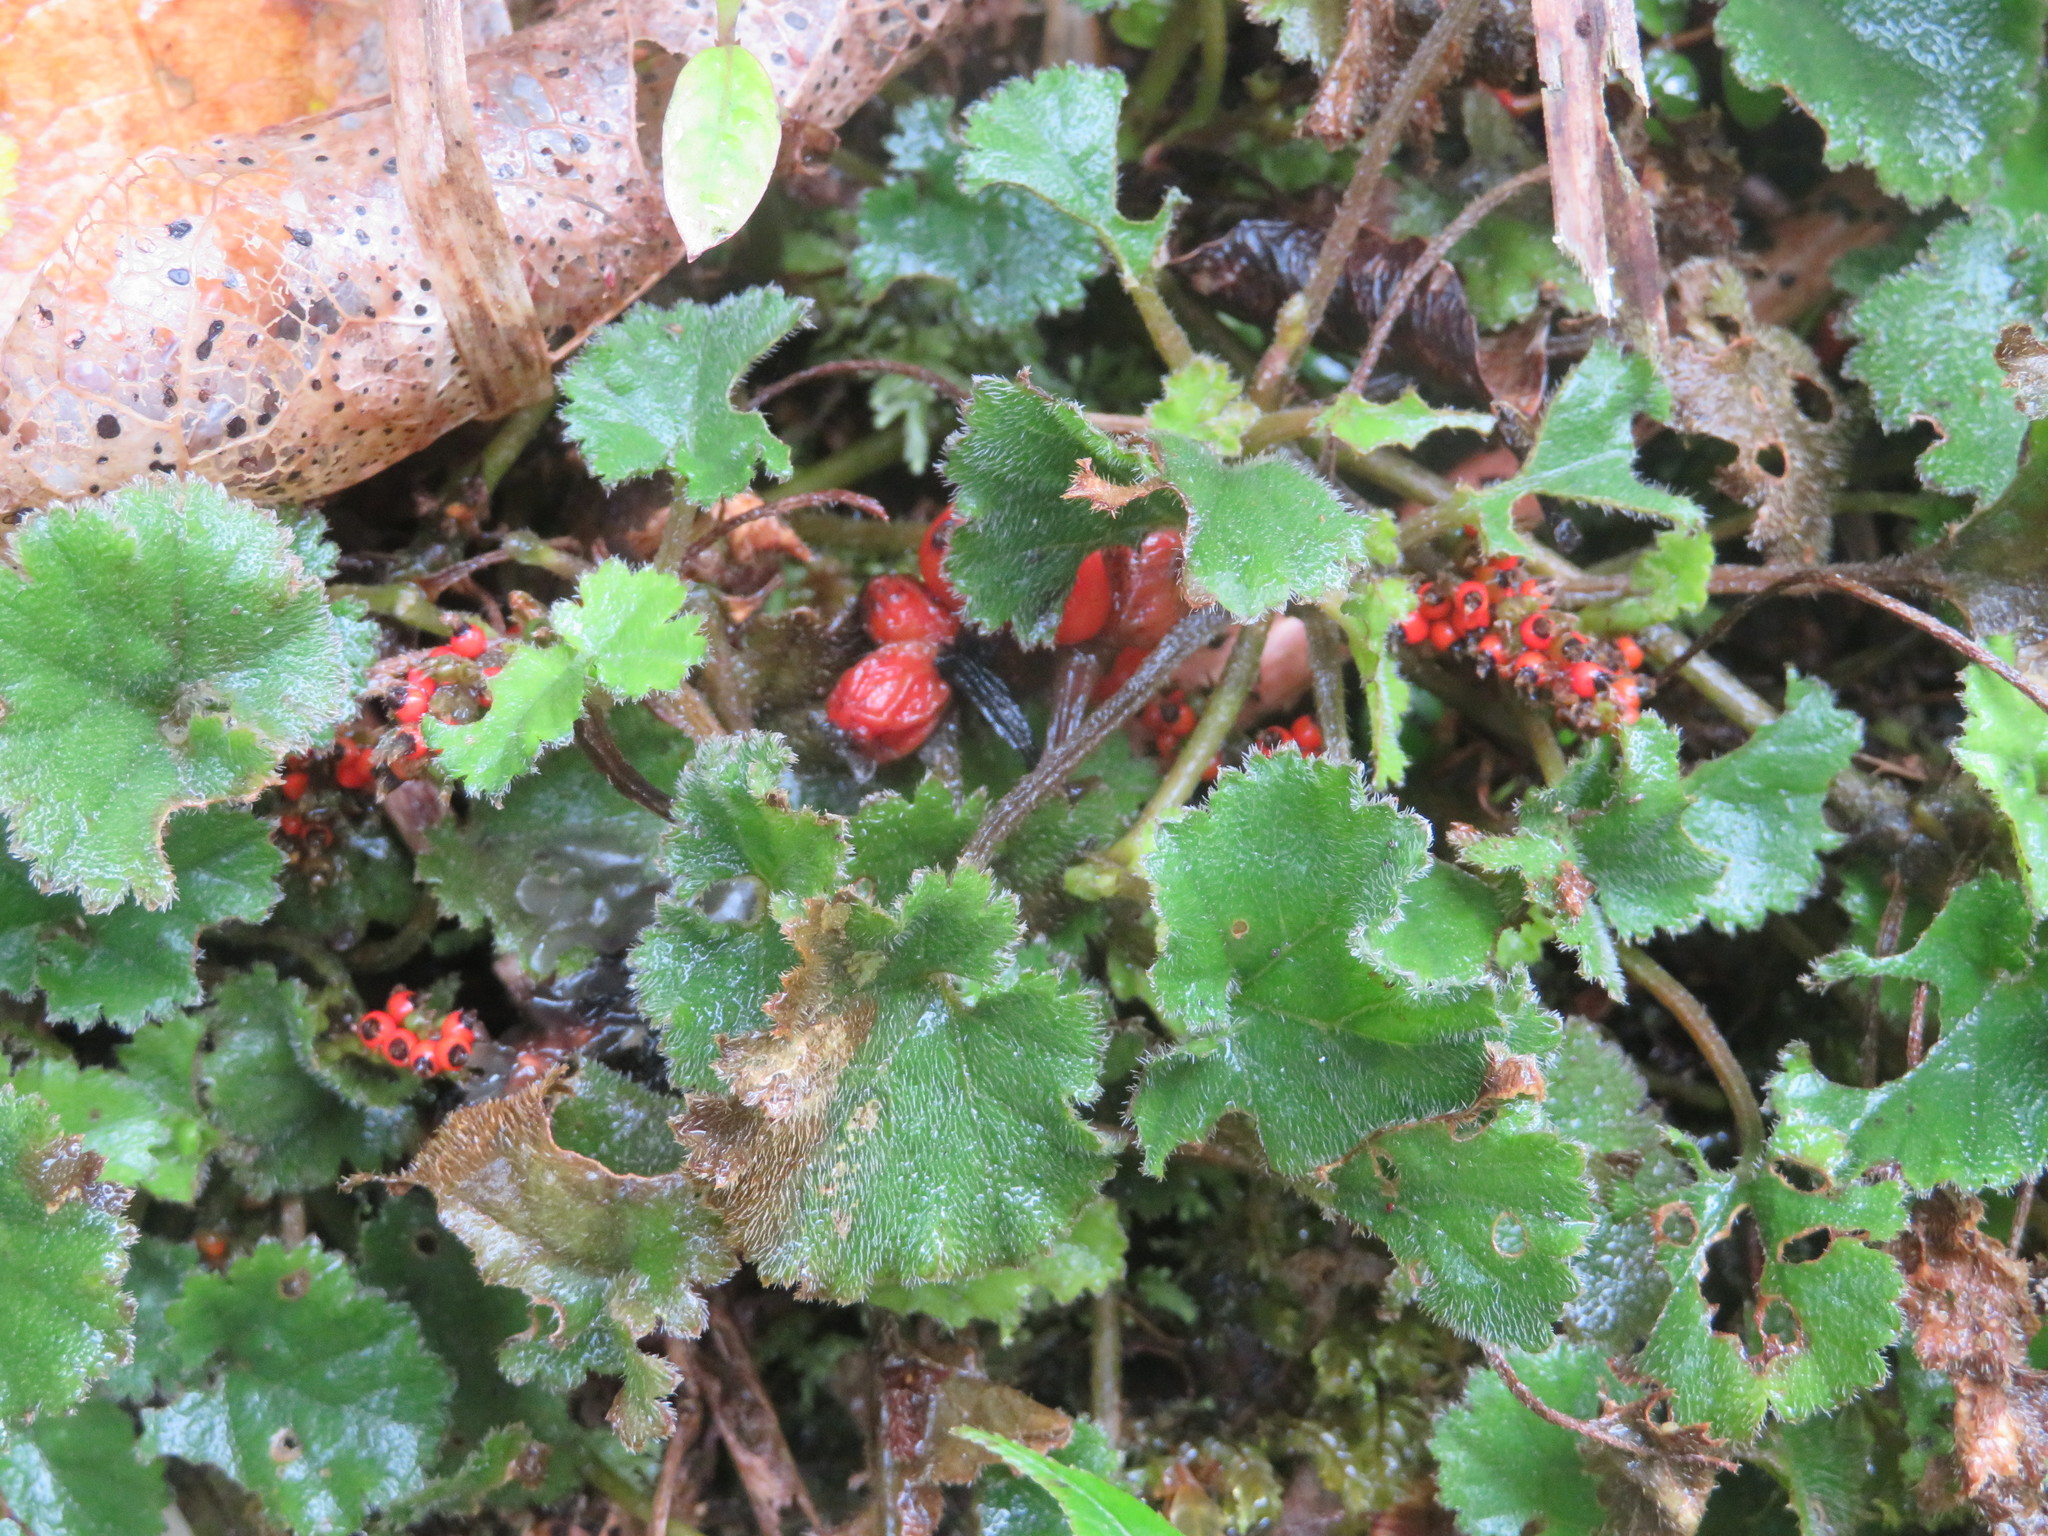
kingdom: Plantae
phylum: Tracheophyta
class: Magnoliopsida
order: Gunnerales
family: Gunneraceae
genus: Gunnera
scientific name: Gunnera
